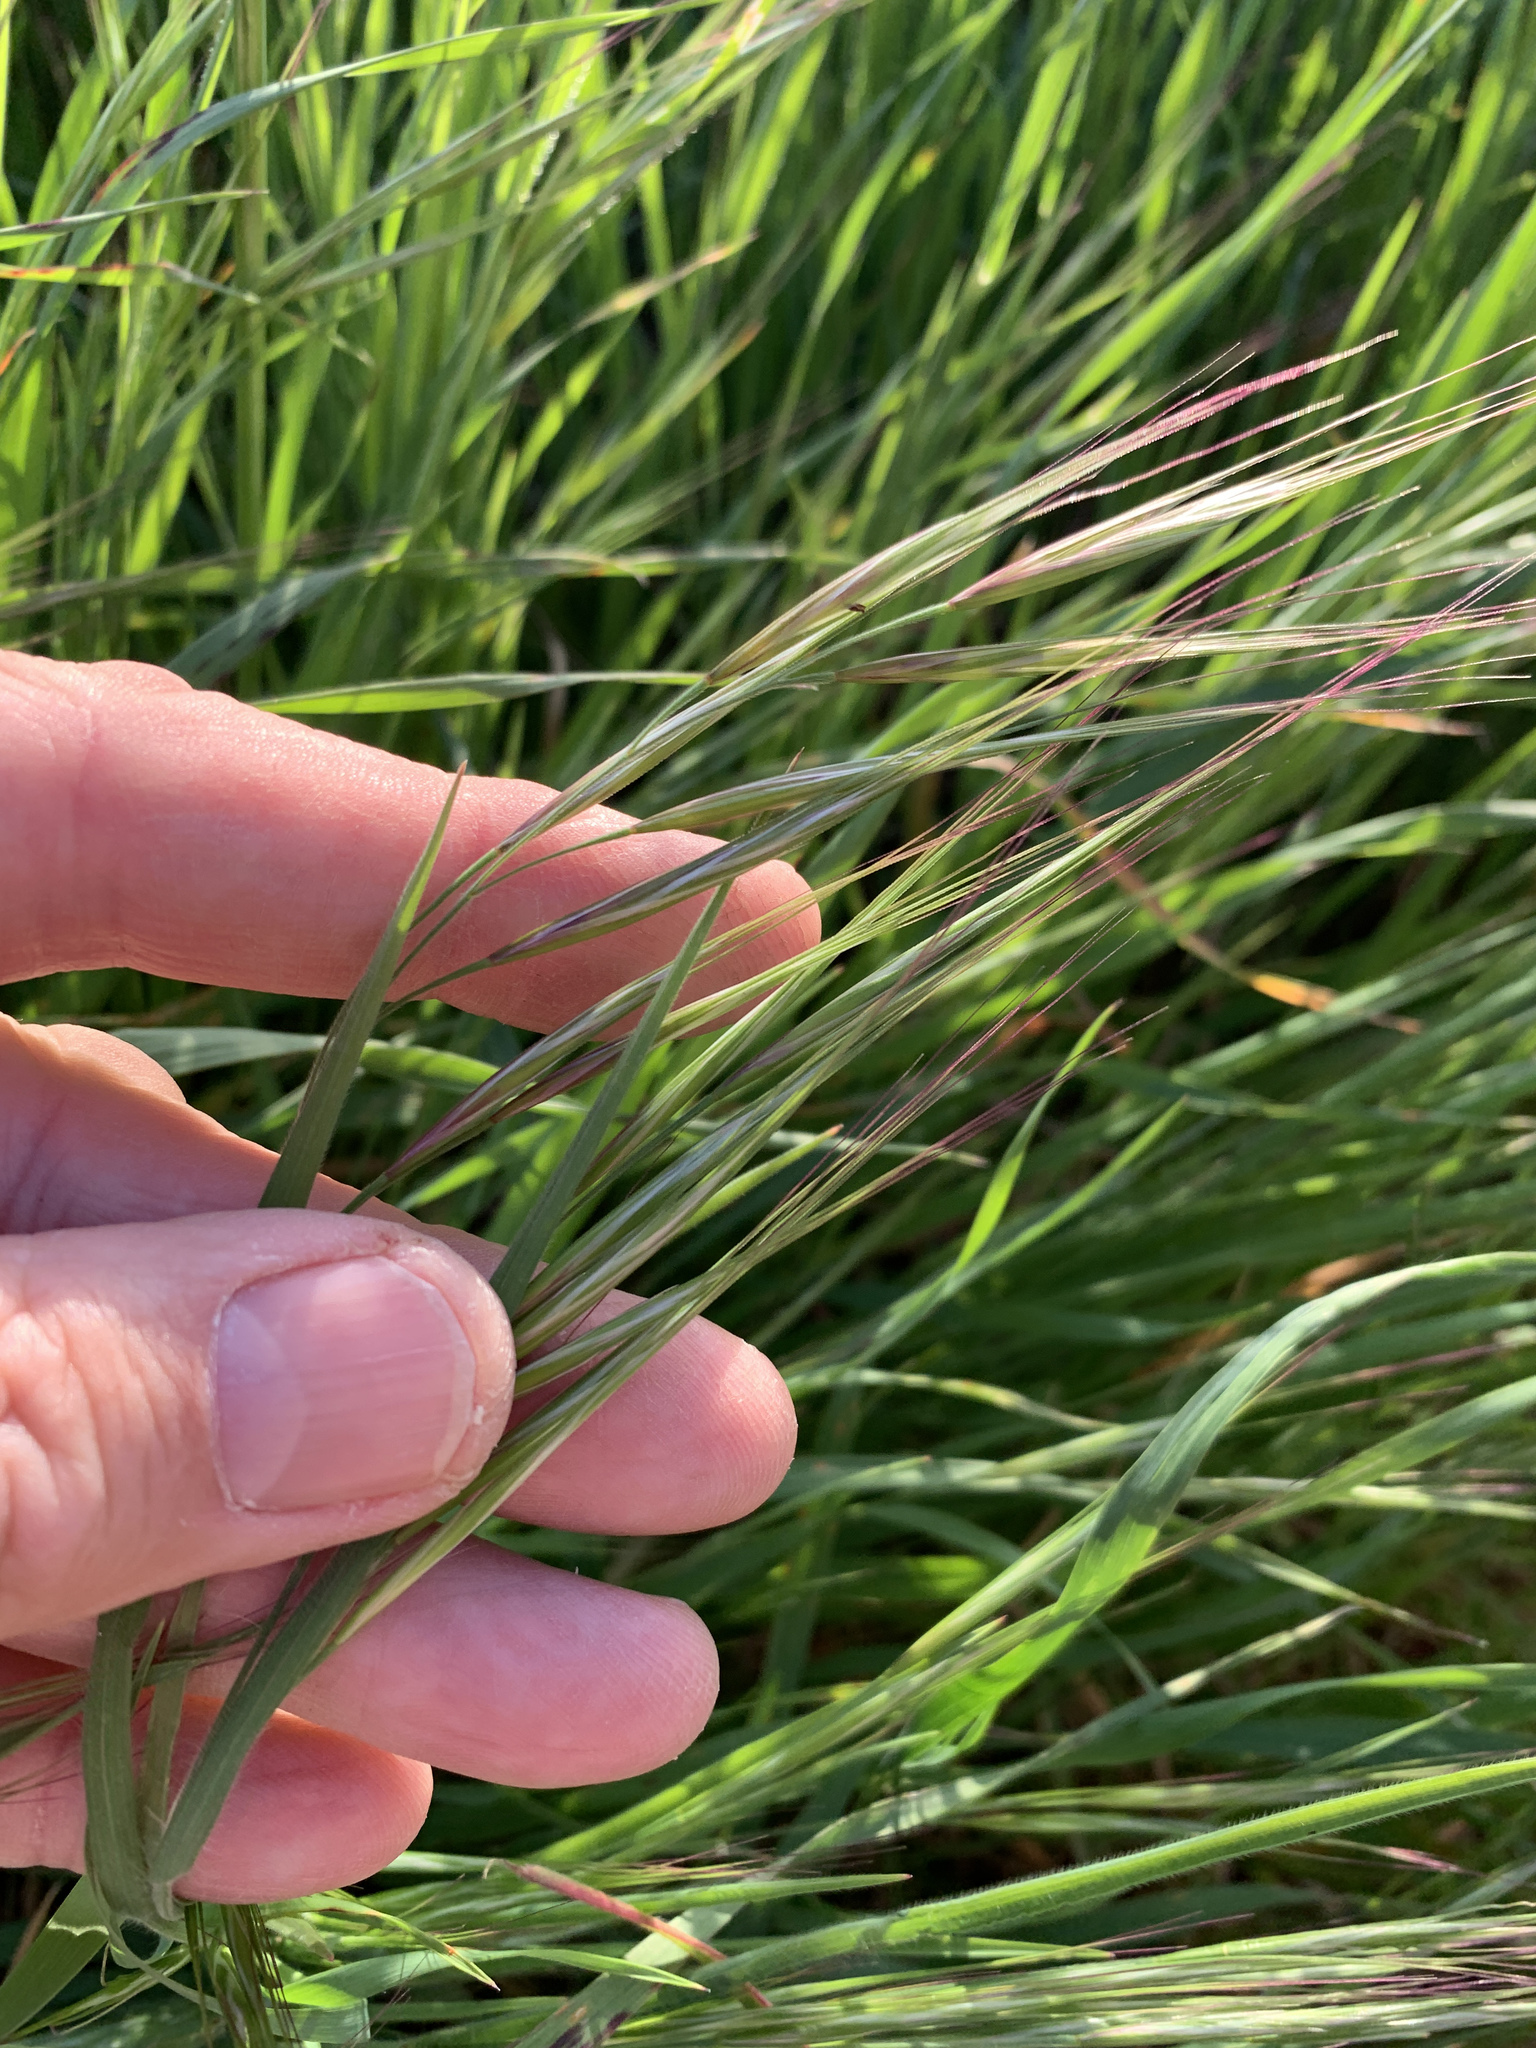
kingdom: Plantae
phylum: Tracheophyta
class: Liliopsida
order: Poales
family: Poaceae
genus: Bromus
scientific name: Bromus diandrus
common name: Ripgut brome
